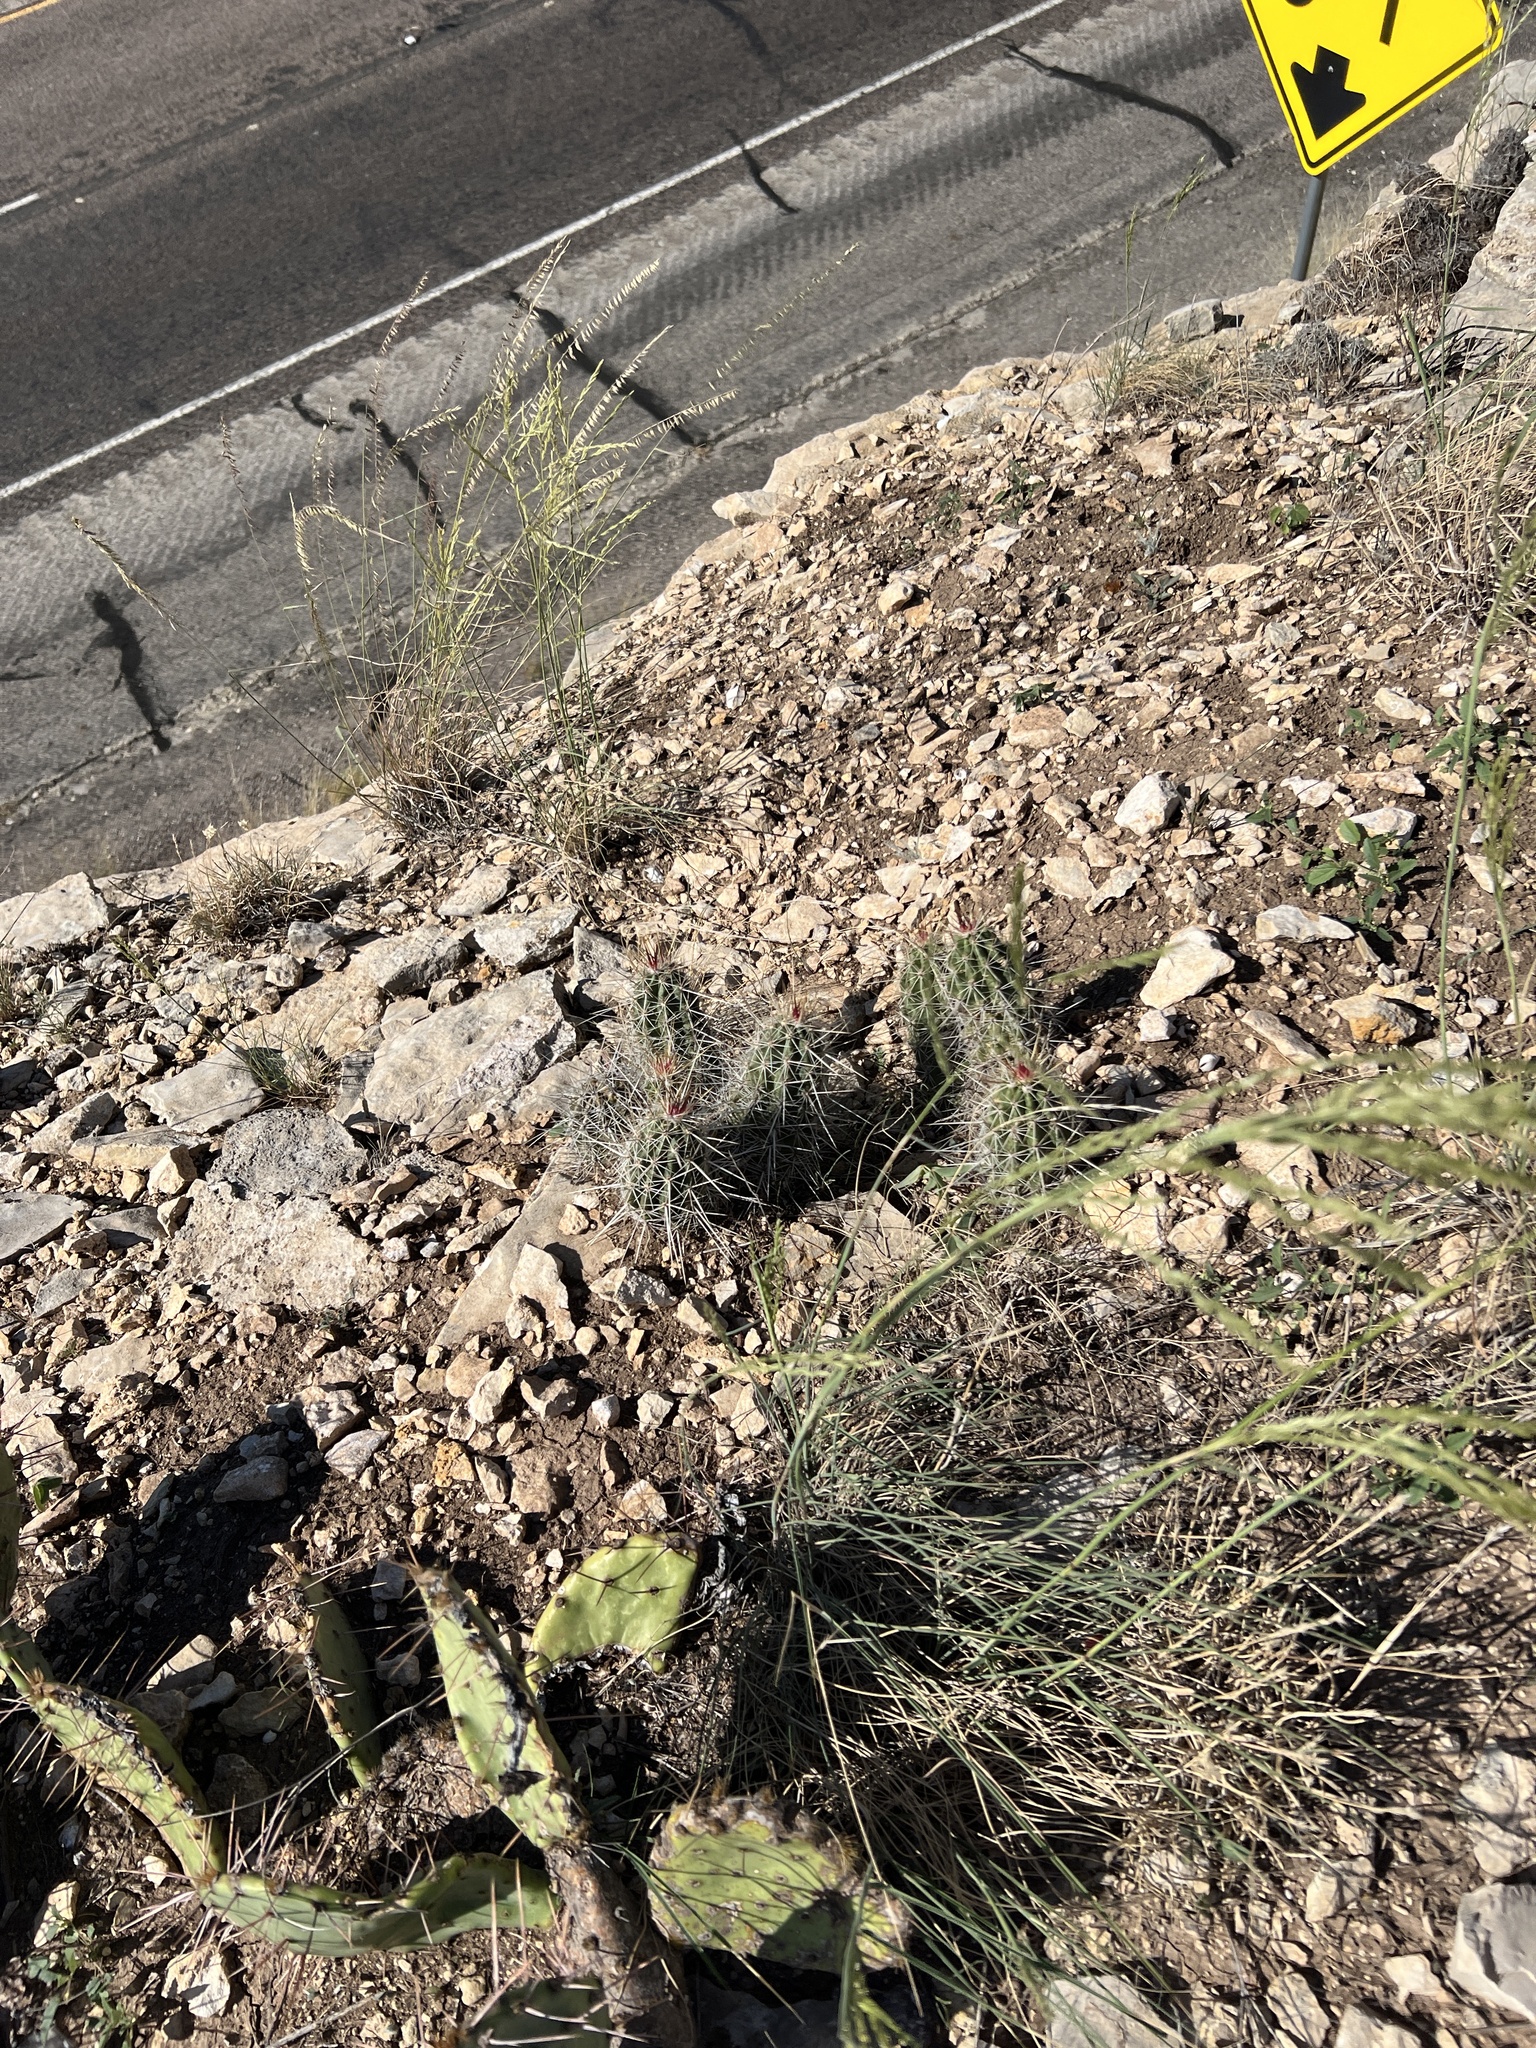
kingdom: Plantae
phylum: Tracheophyta
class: Magnoliopsida
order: Caryophyllales
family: Cactaceae
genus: Echinocereus
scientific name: Echinocereus enneacanthus
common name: Pitaya
